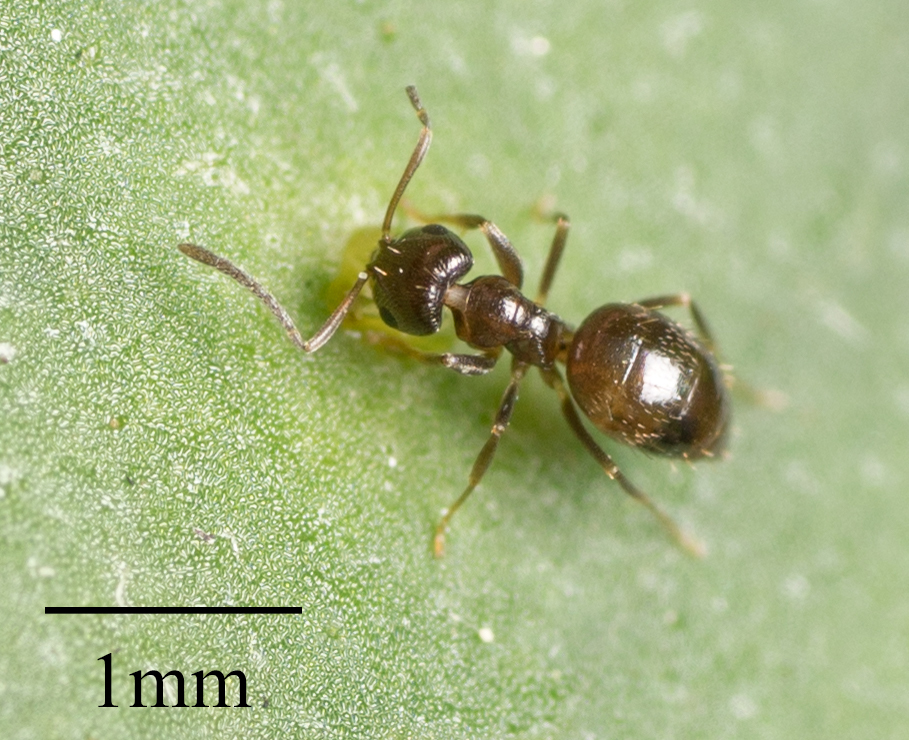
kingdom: Animalia
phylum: Arthropoda
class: Insecta
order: Hymenoptera
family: Formicidae
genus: Brachymyrmex
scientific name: Brachymyrmex patagonicus
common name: Dark rover ant
